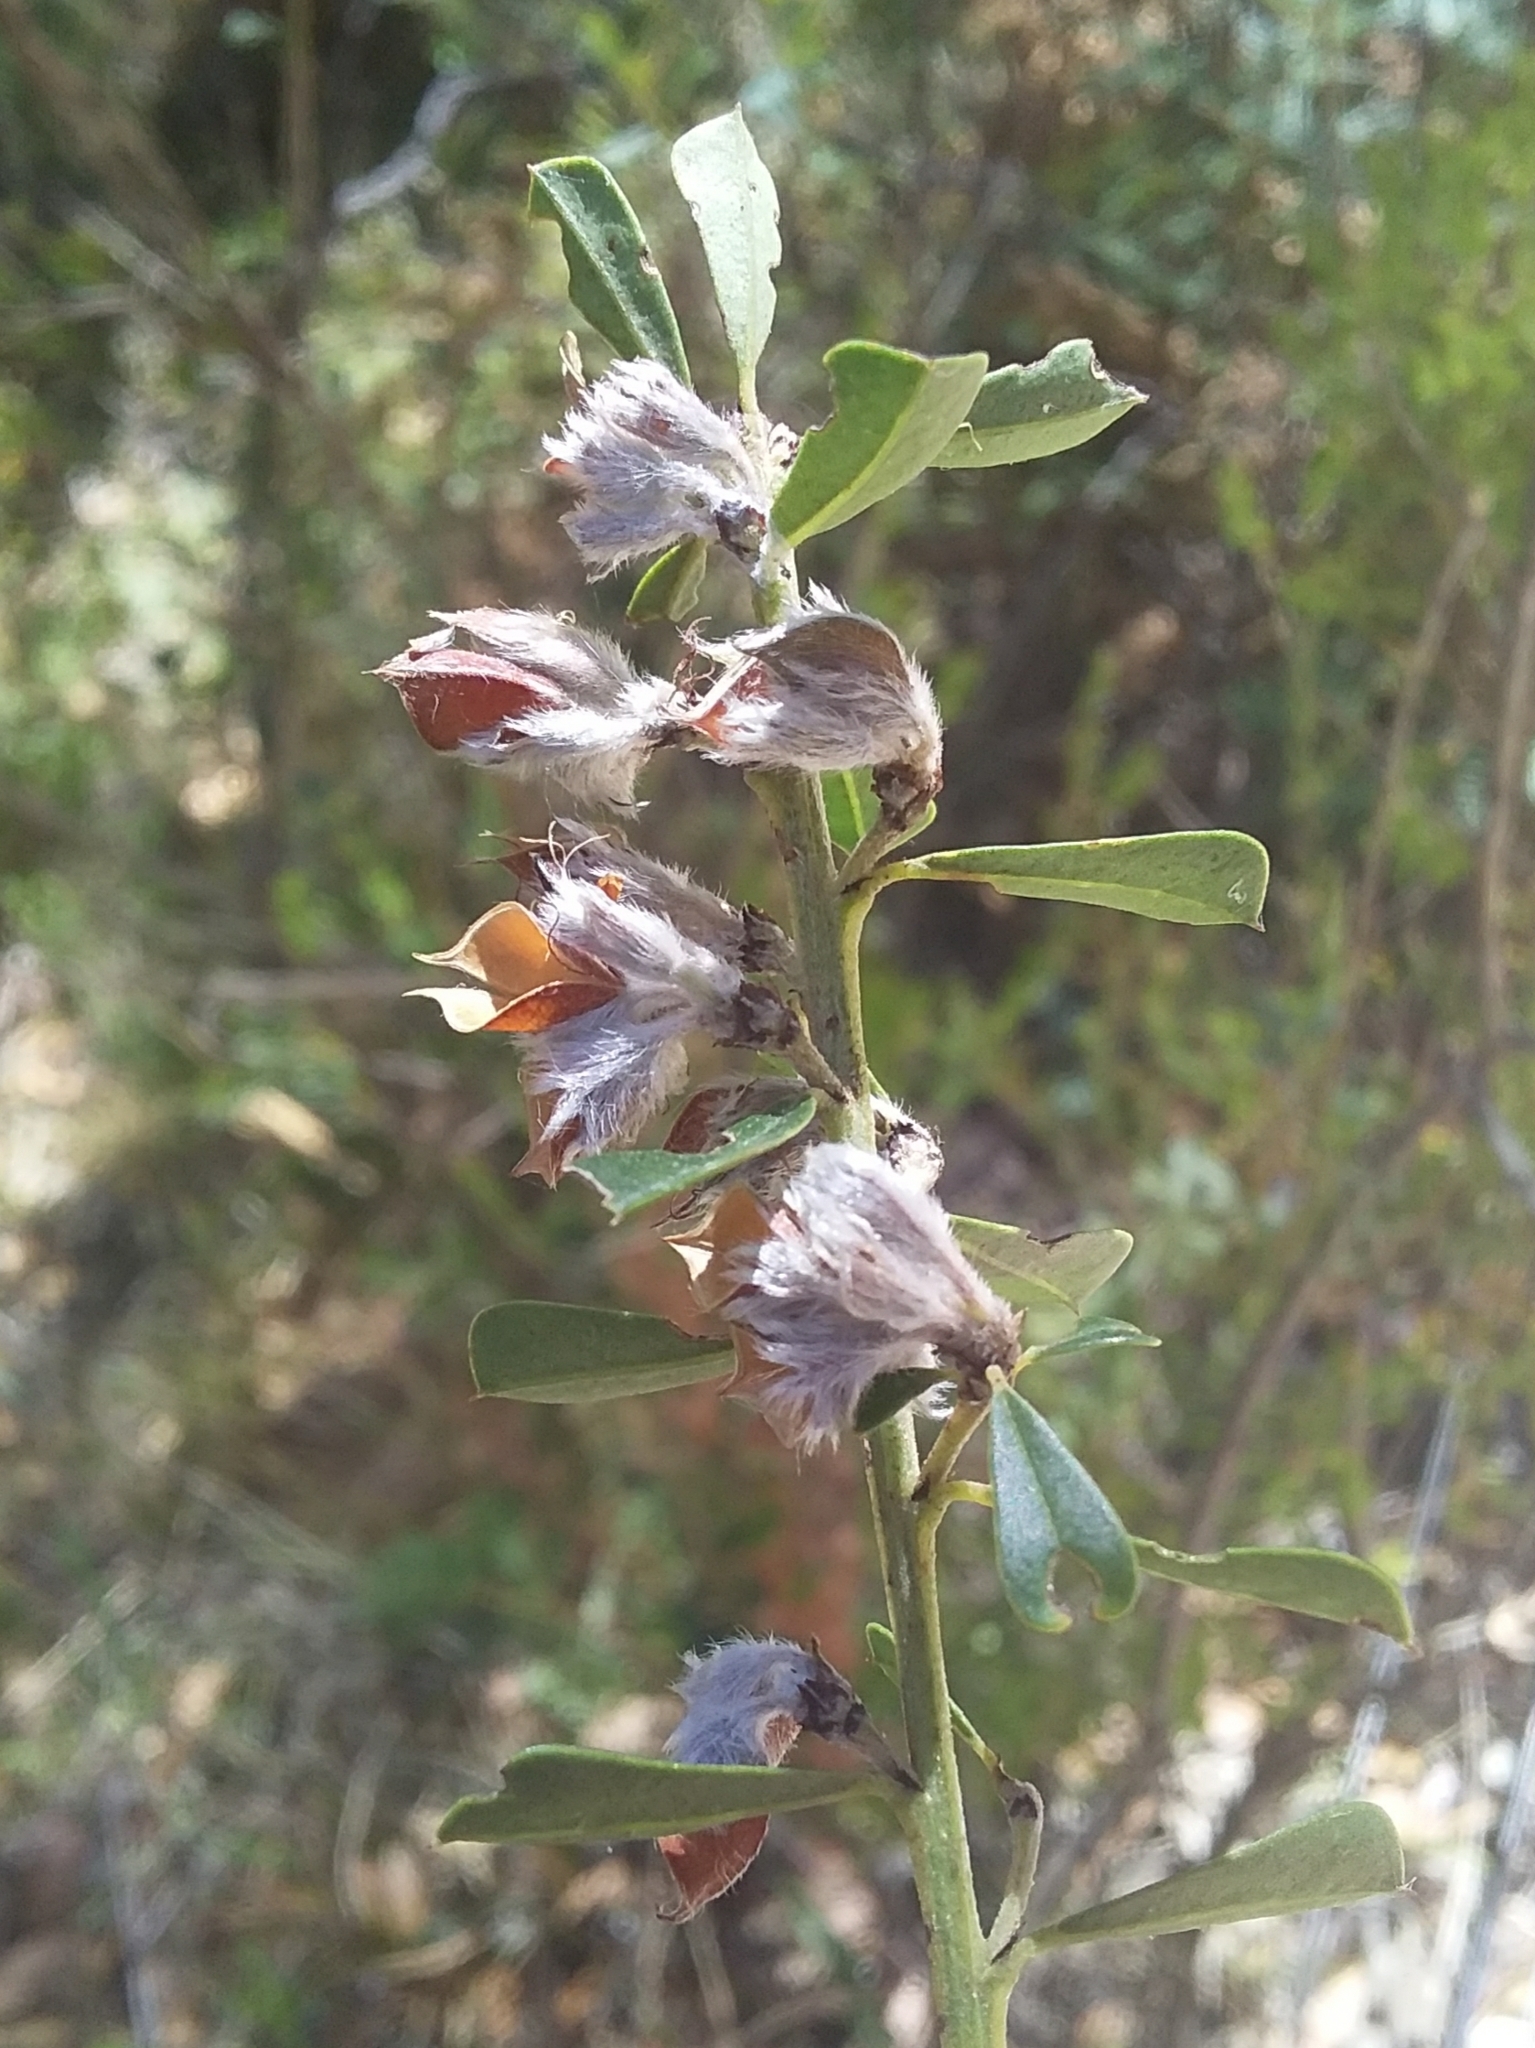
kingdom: Plantae
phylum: Tracheophyta
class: Magnoliopsida
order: Fabales
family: Fabaceae
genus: Pultenaea
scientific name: Pultenaea daphnoides
